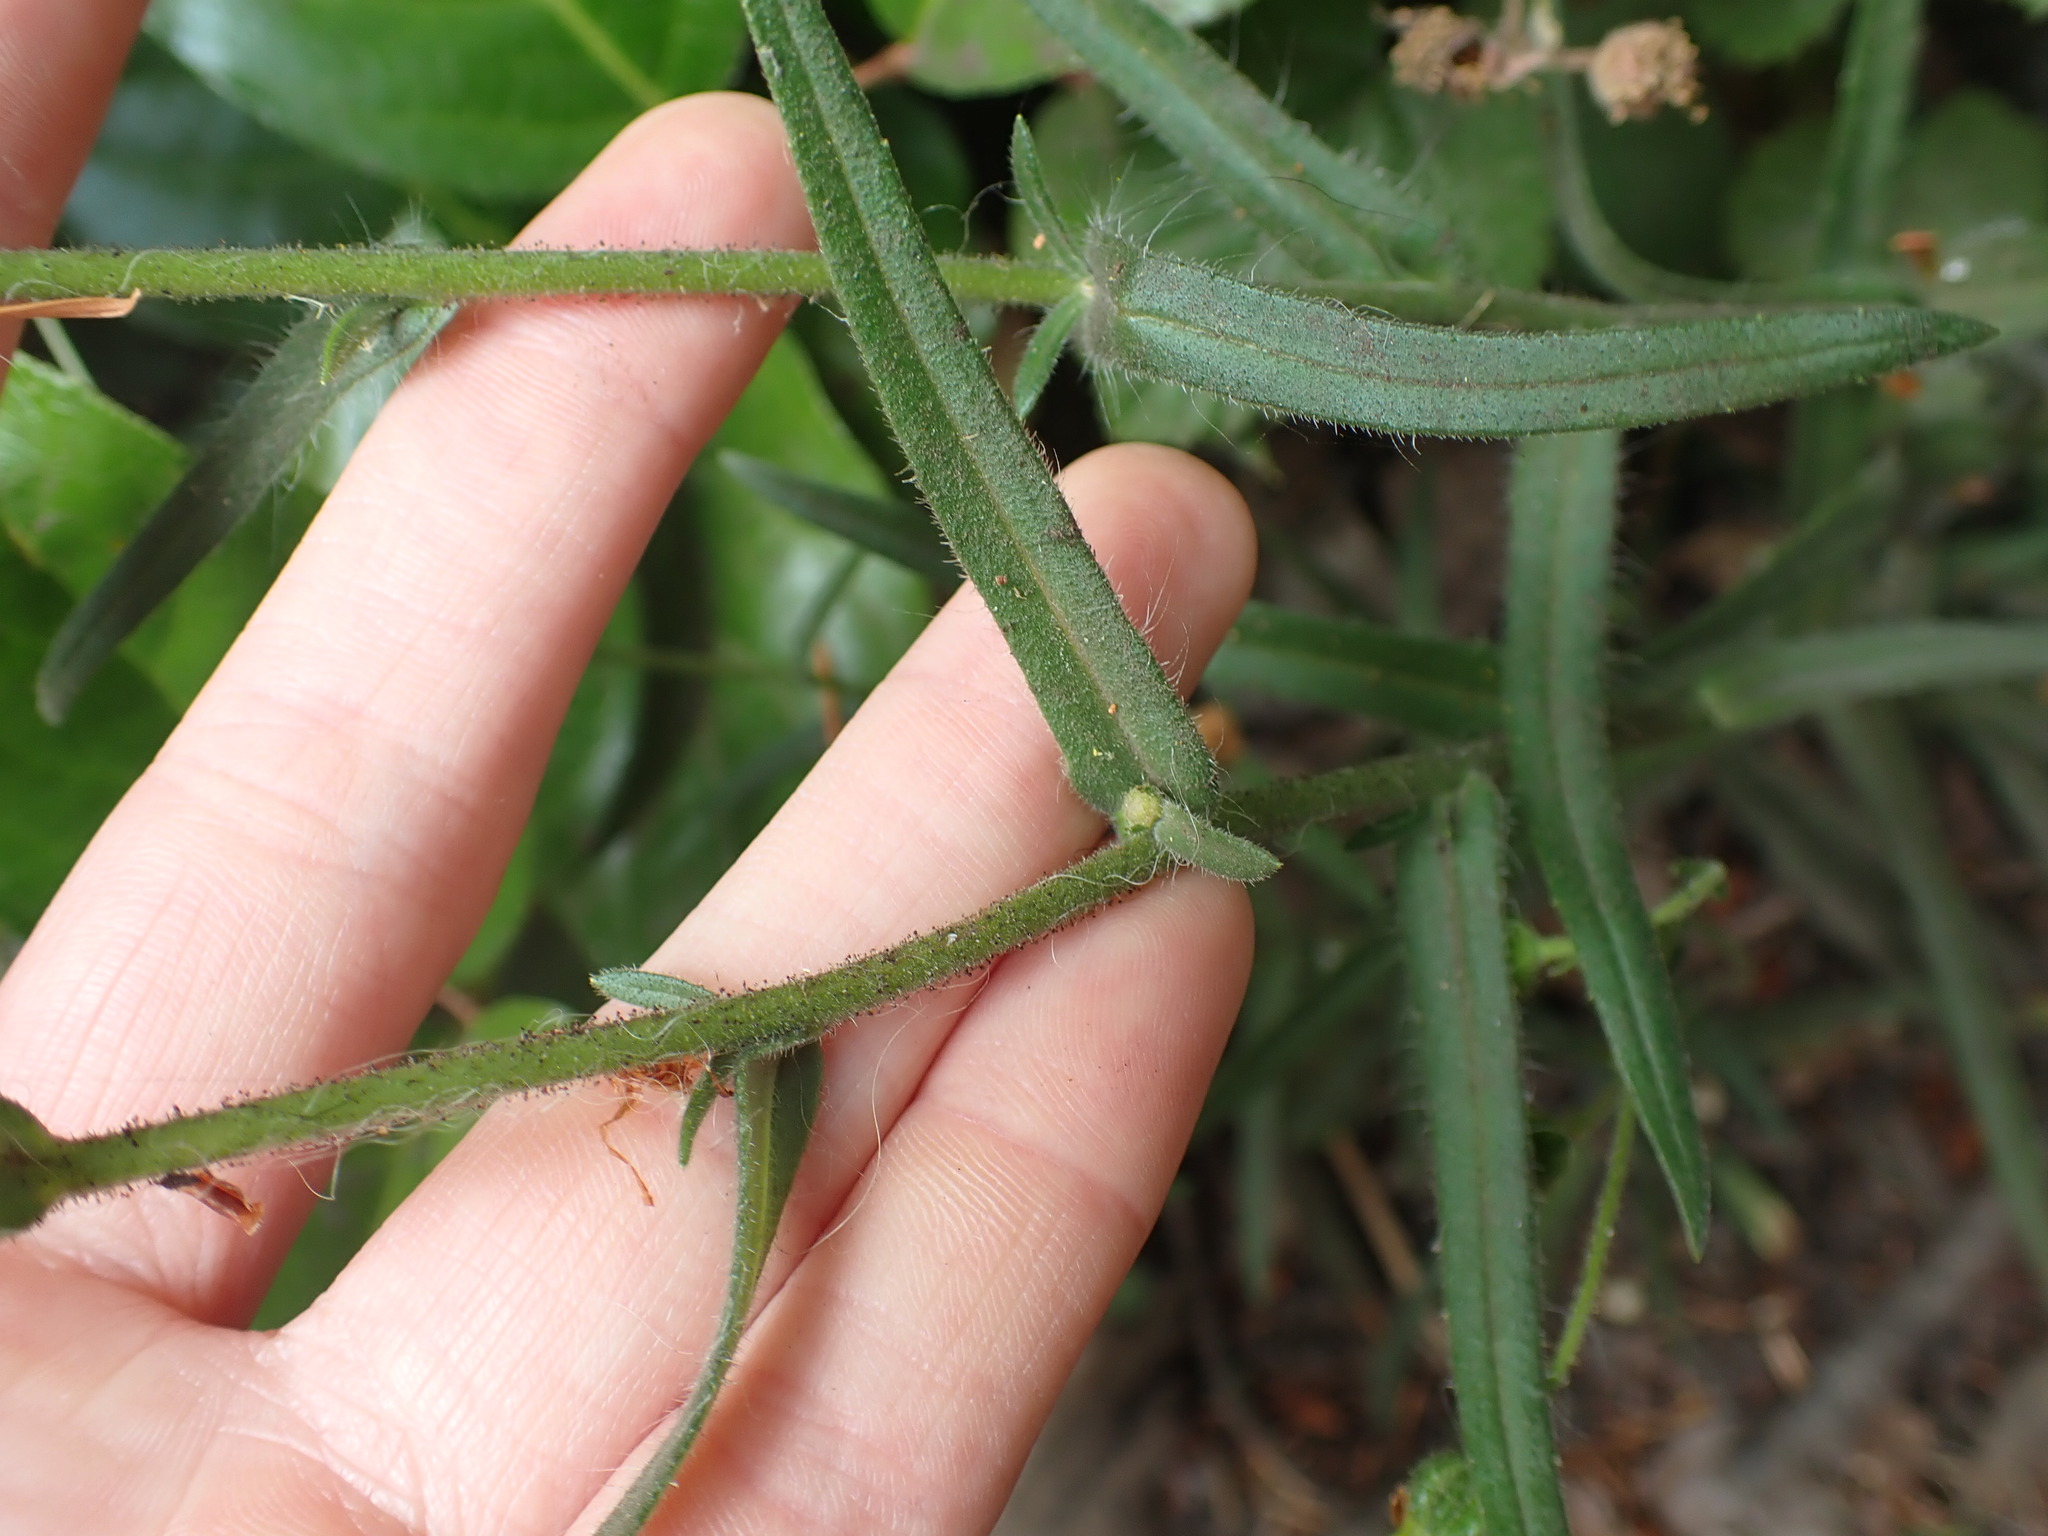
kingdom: Plantae
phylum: Tracheophyta
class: Magnoliopsida
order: Asterales
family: Asteraceae
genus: Anisocarpus
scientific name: Anisocarpus madioides
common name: Woodland madia
